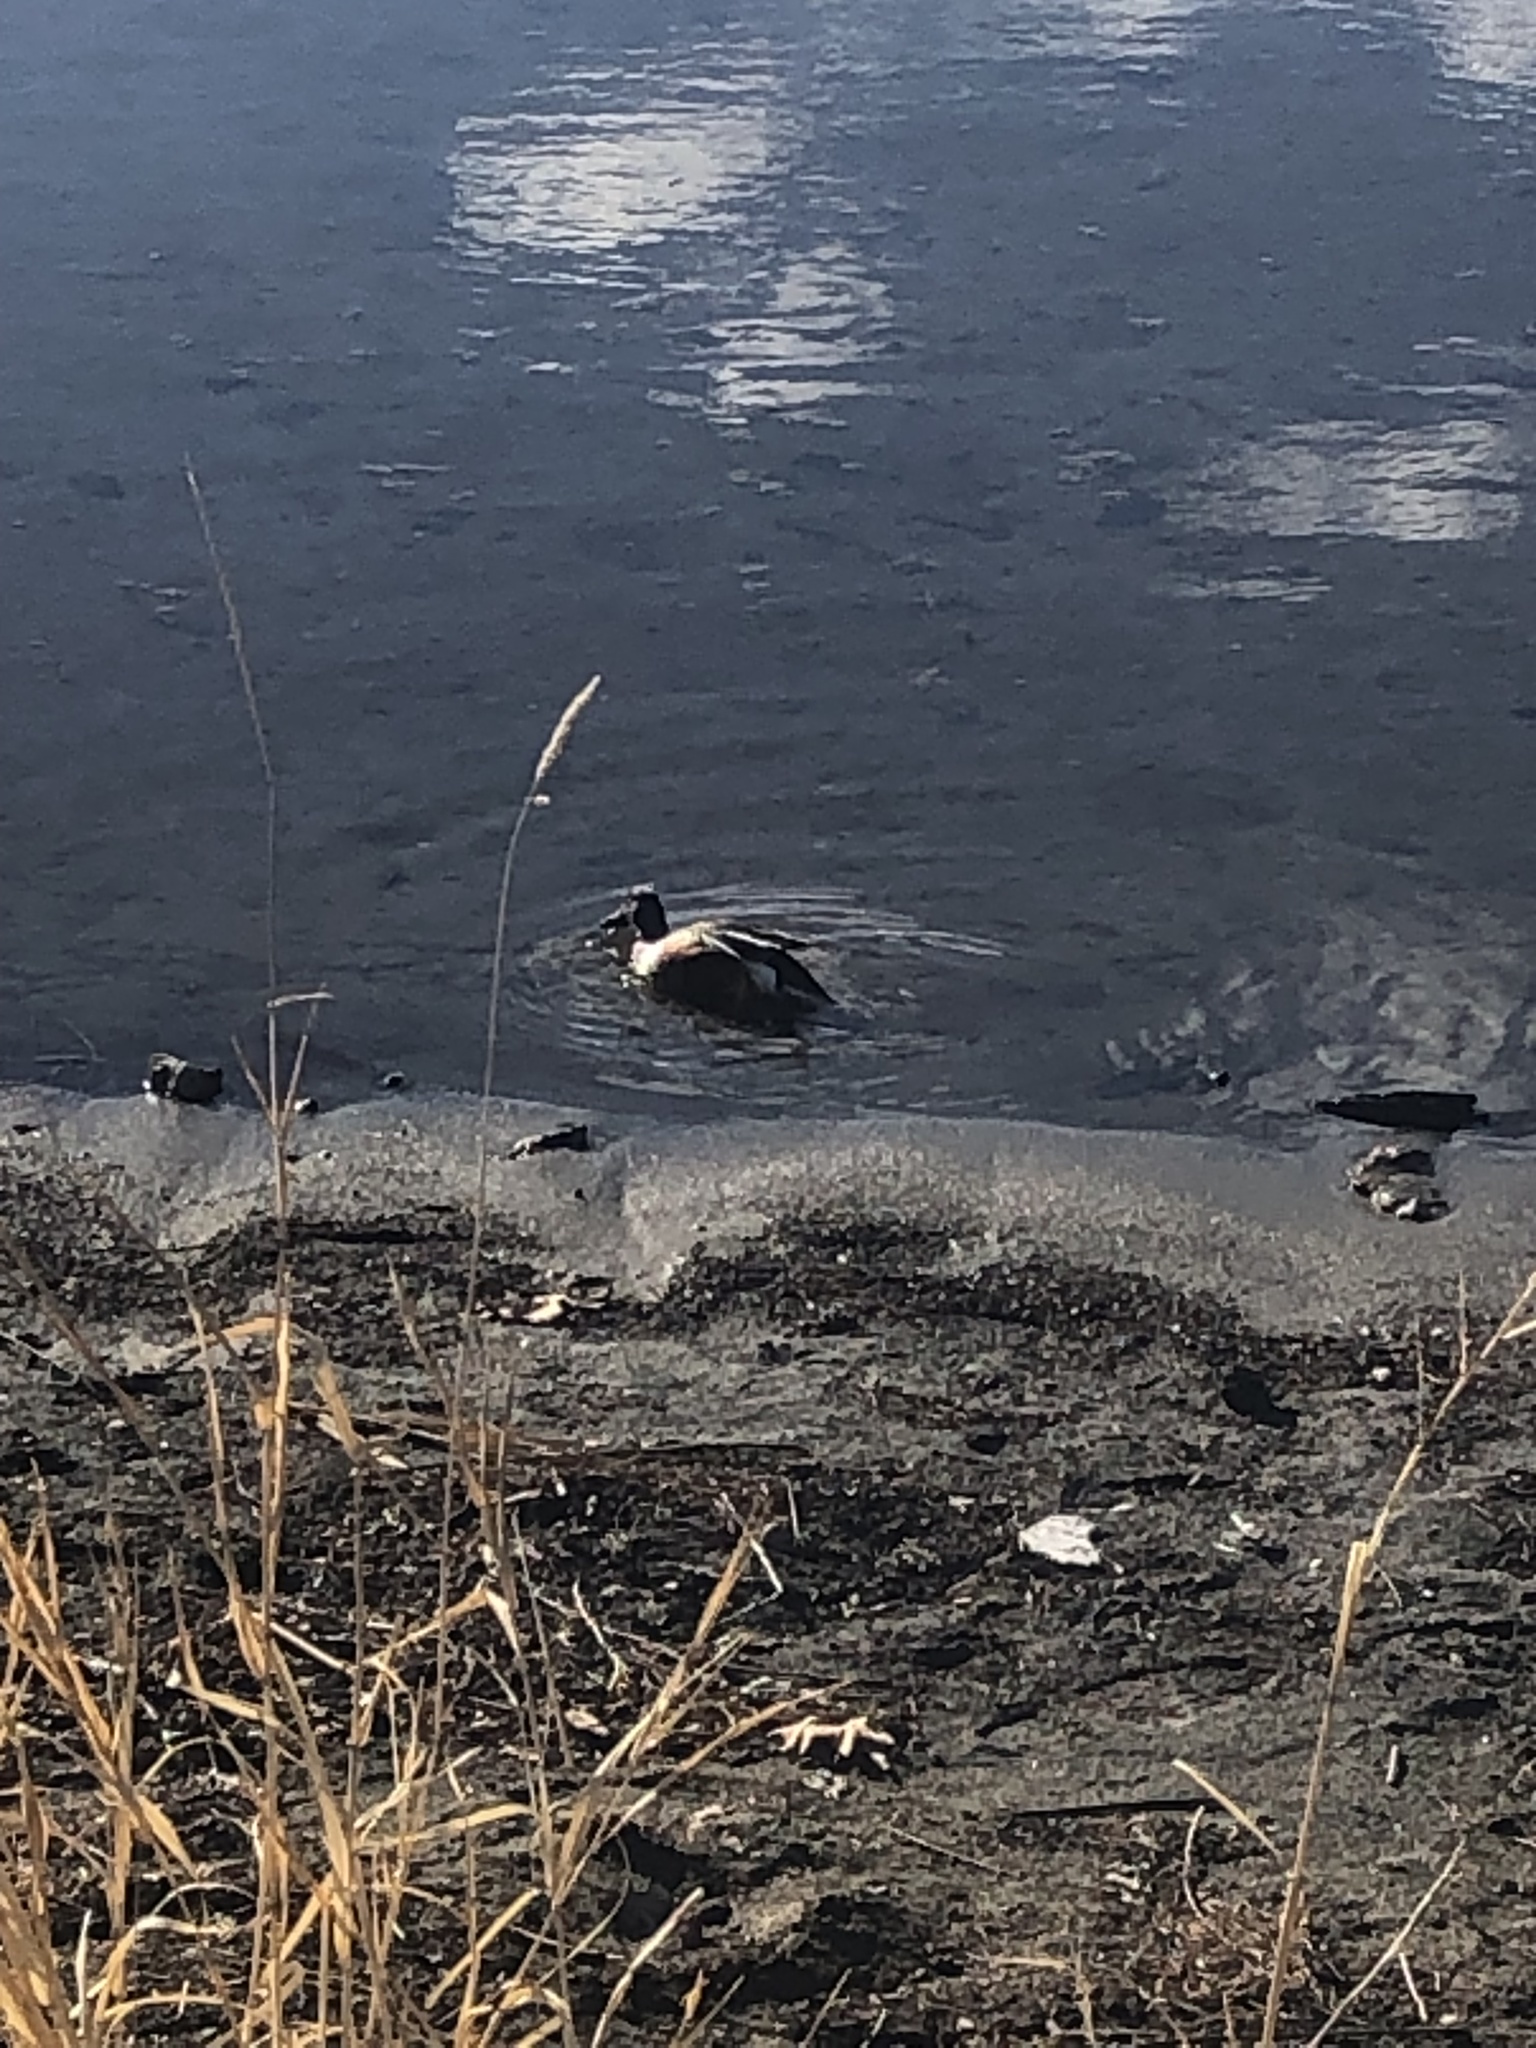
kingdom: Animalia
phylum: Chordata
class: Aves
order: Anseriformes
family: Anatidae
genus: Spatula
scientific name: Spatula clypeata
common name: Northern shoveler
